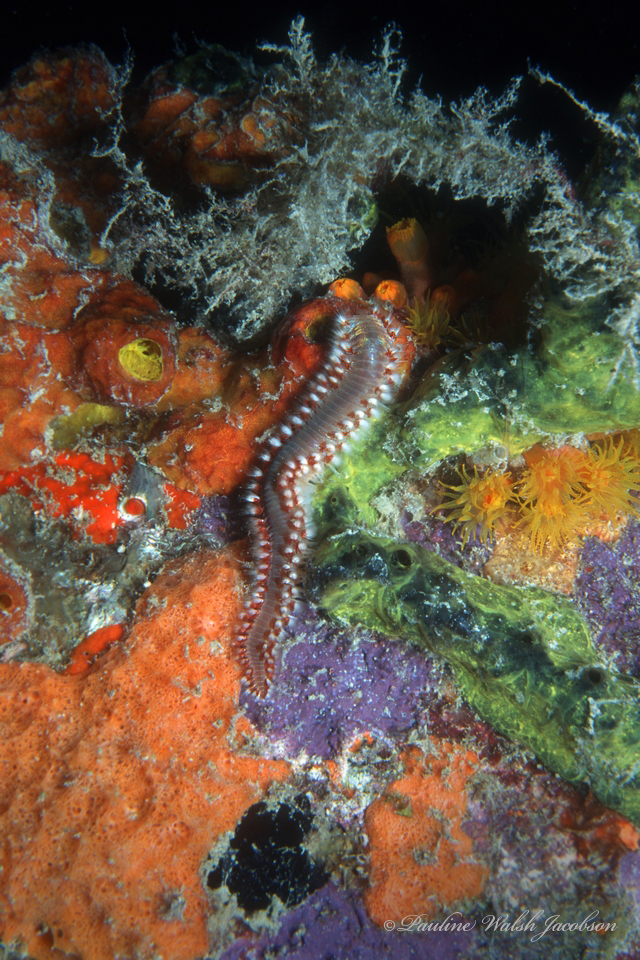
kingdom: Animalia
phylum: Annelida
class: Polychaeta
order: Amphinomida
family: Amphinomidae
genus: Hermodice
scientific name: Hermodice carunculata
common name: Bearded fireworm
